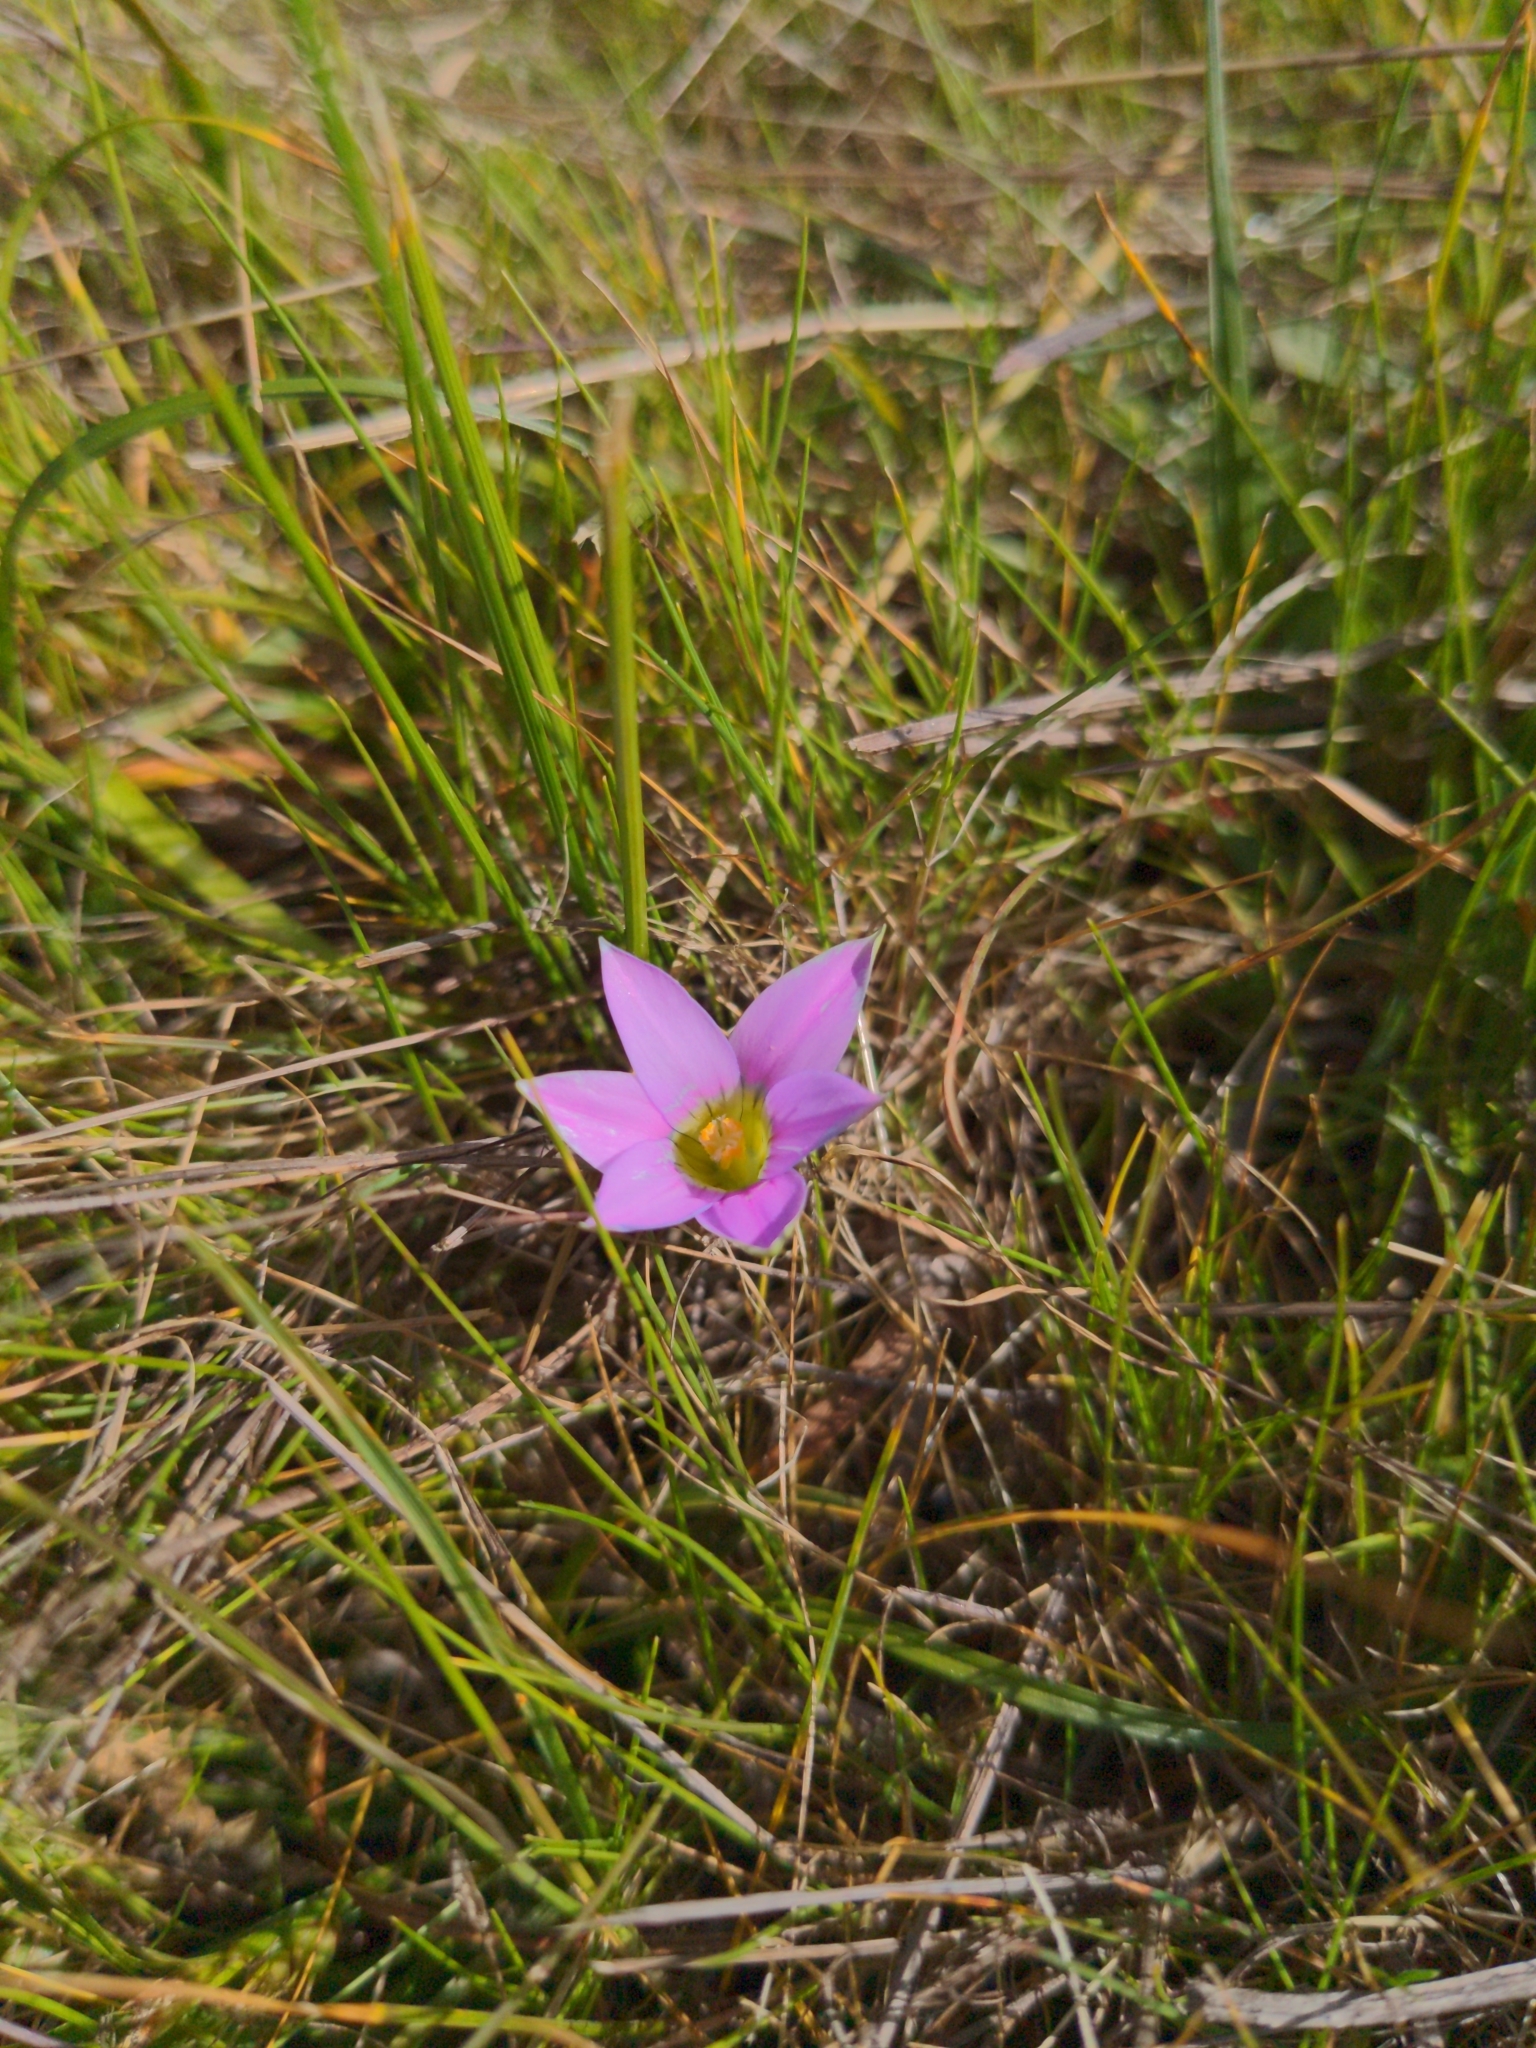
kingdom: Plantae
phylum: Tracheophyta
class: Liliopsida
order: Asparagales
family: Iridaceae
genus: Romulea
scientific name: Romulea rosea
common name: Oniongrass
